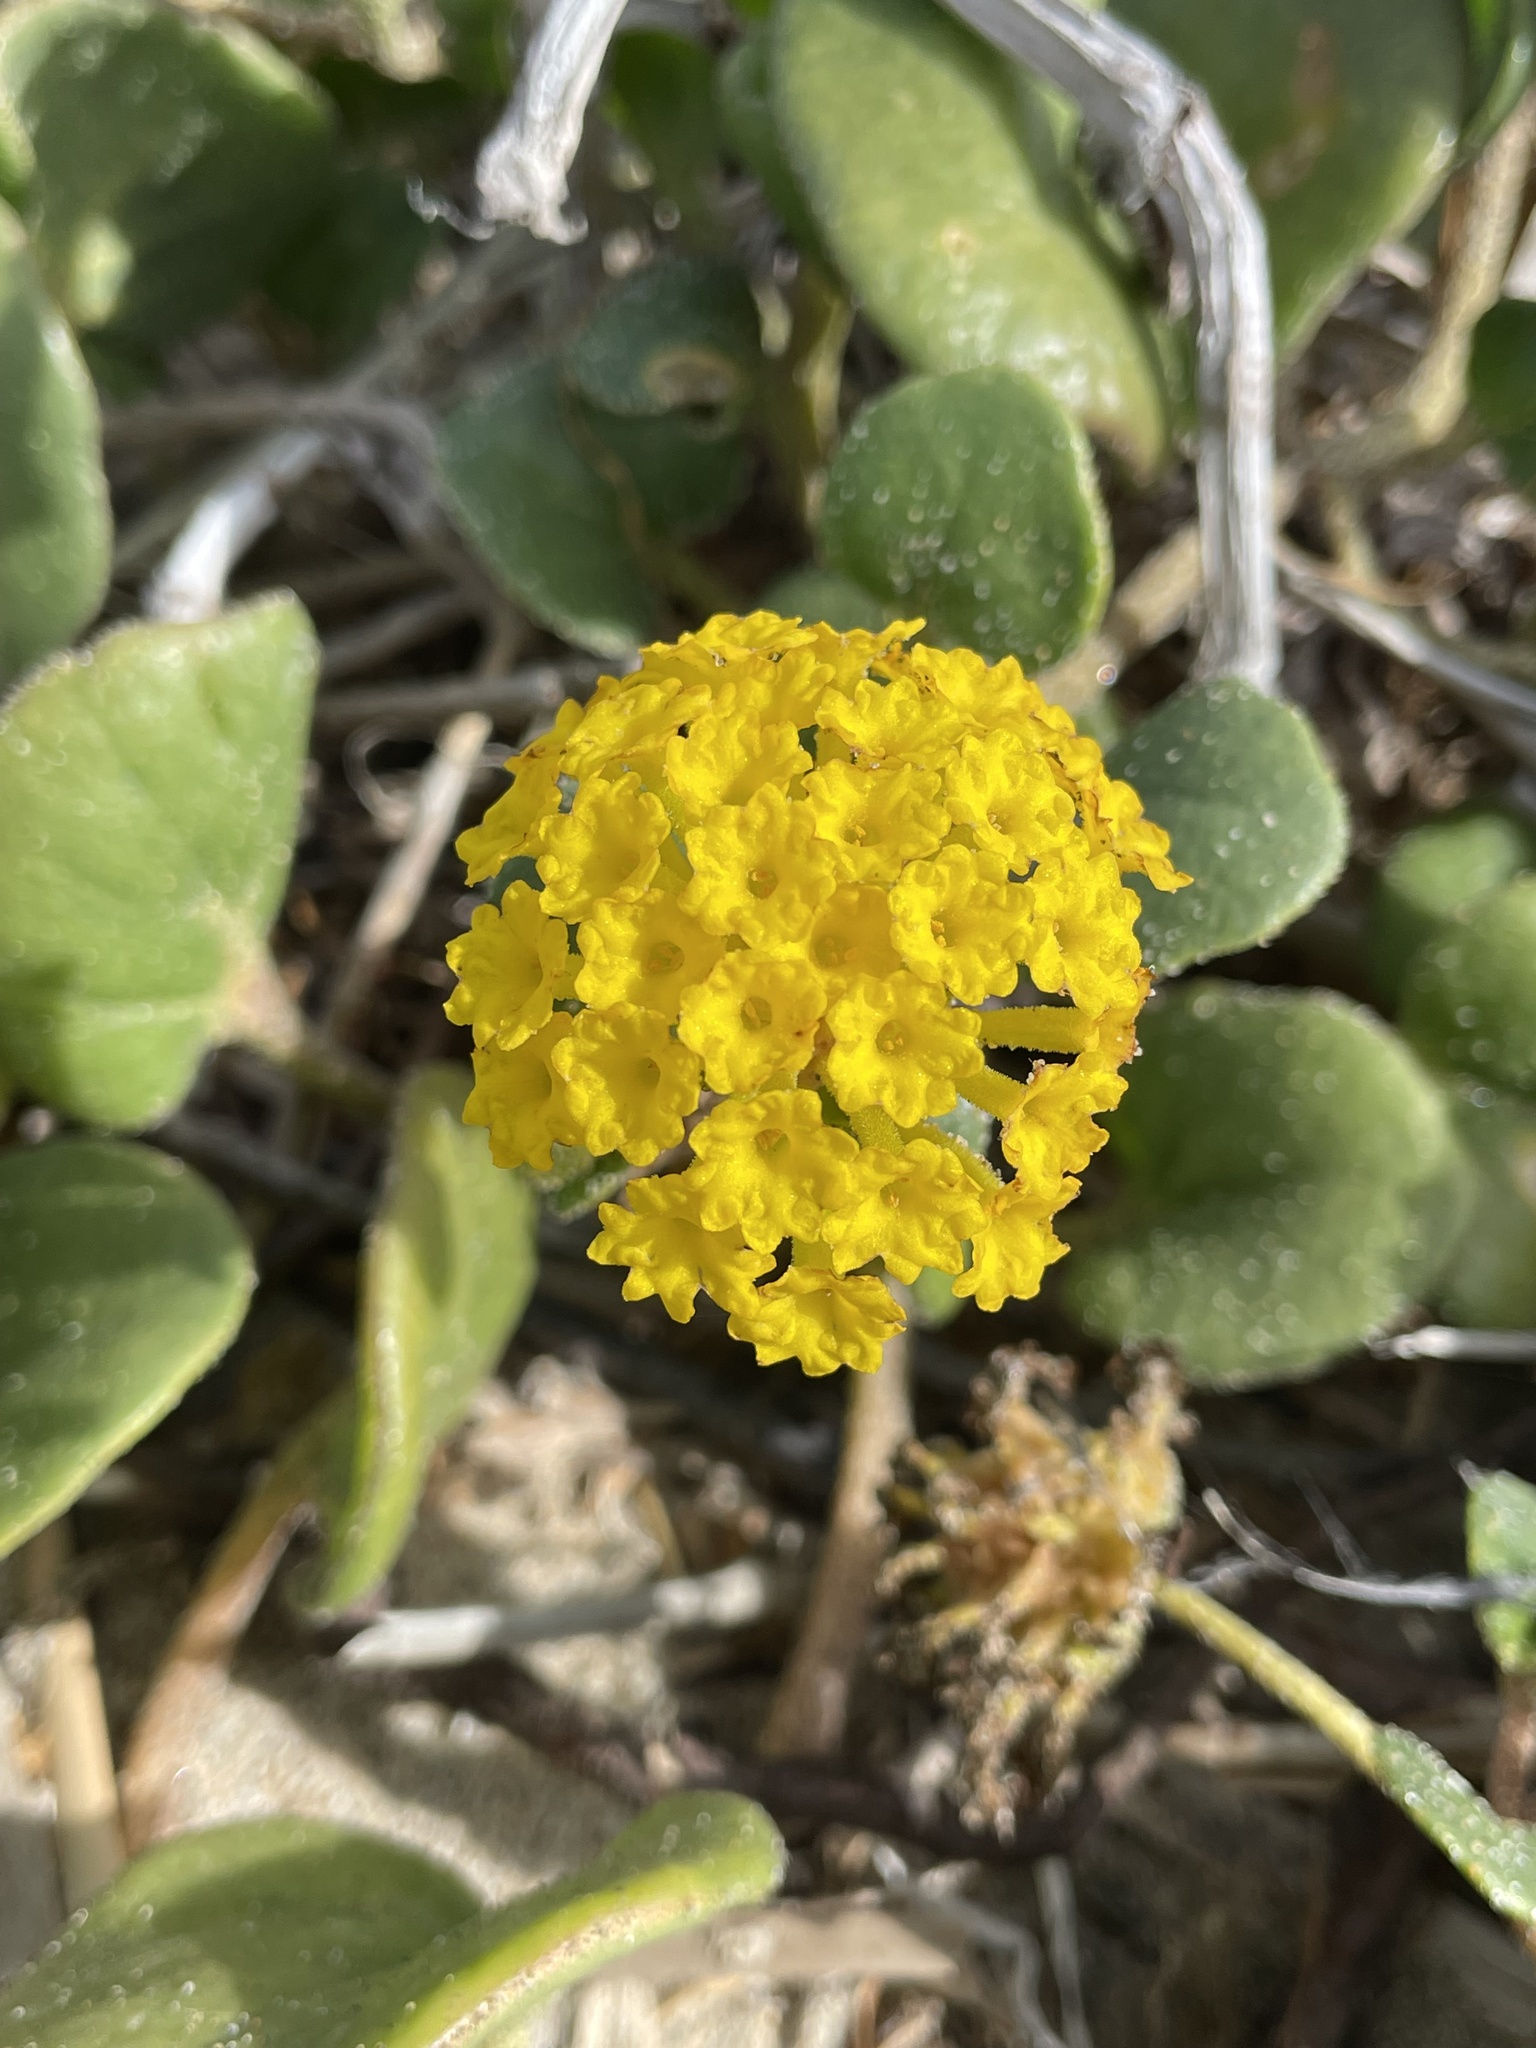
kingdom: Plantae
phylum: Tracheophyta
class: Magnoliopsida
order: Caryophyllales
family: Nyctaginaceae
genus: Abronia
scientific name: Abronia latifolia
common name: Yellow sand-verbena
